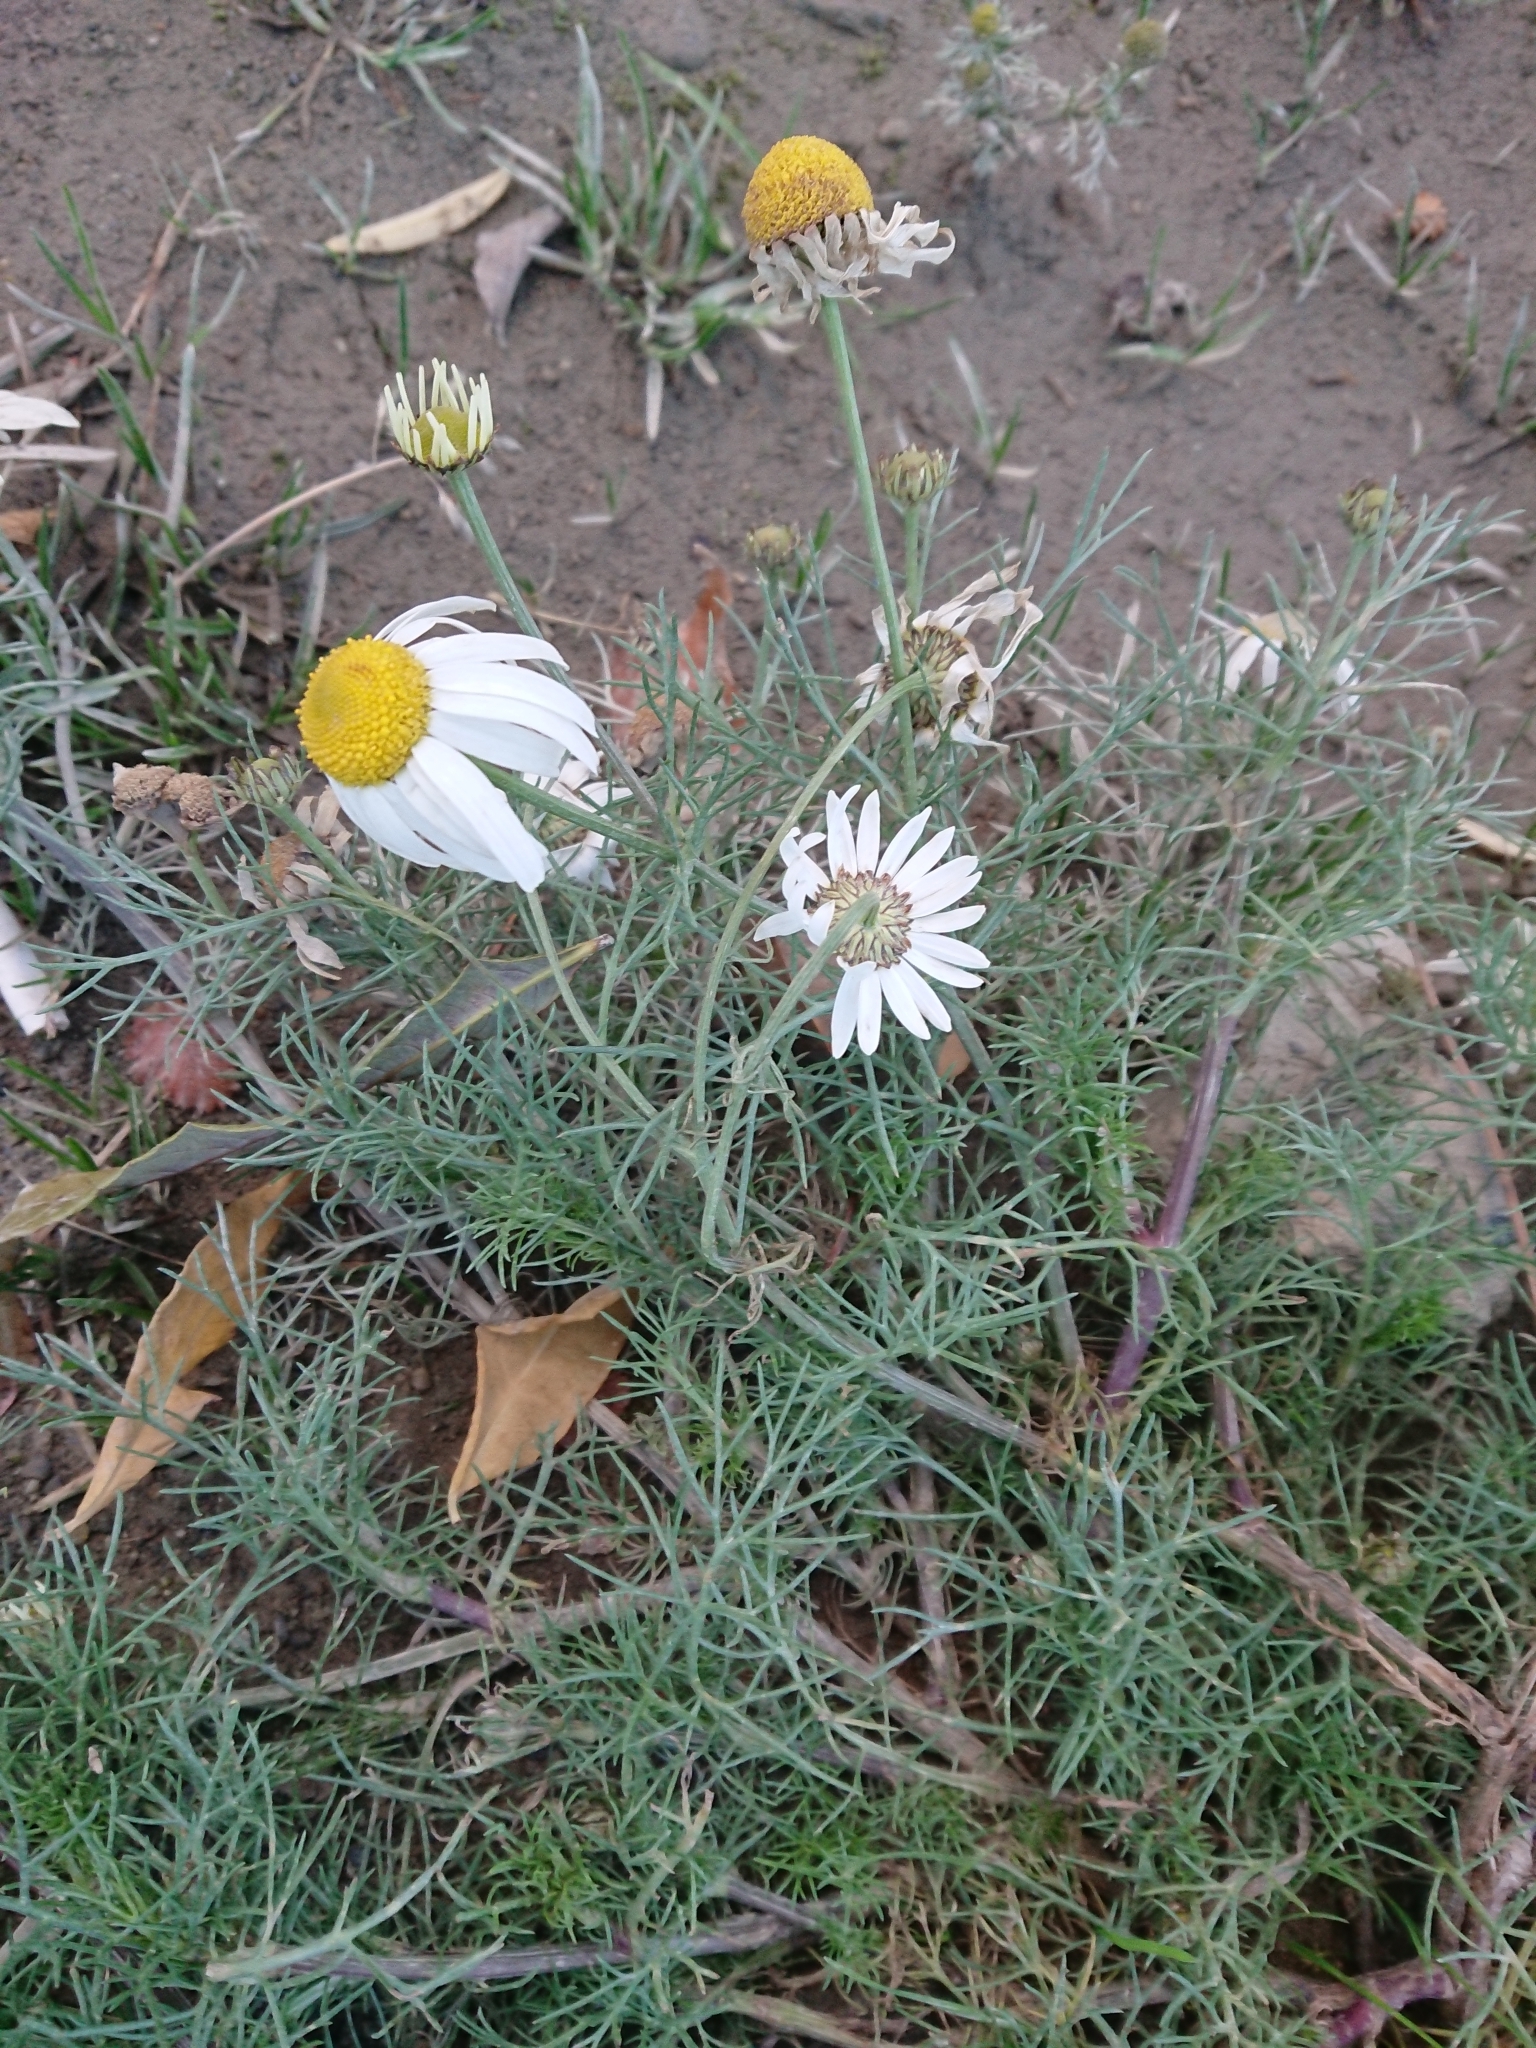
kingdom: Plantae
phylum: Tracheophyta
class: Magnoliopsida
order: Asterales
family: Asteraceae
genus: Tripleurospermum
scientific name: Tripleurospermum inodorum
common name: Scentless mayweed
